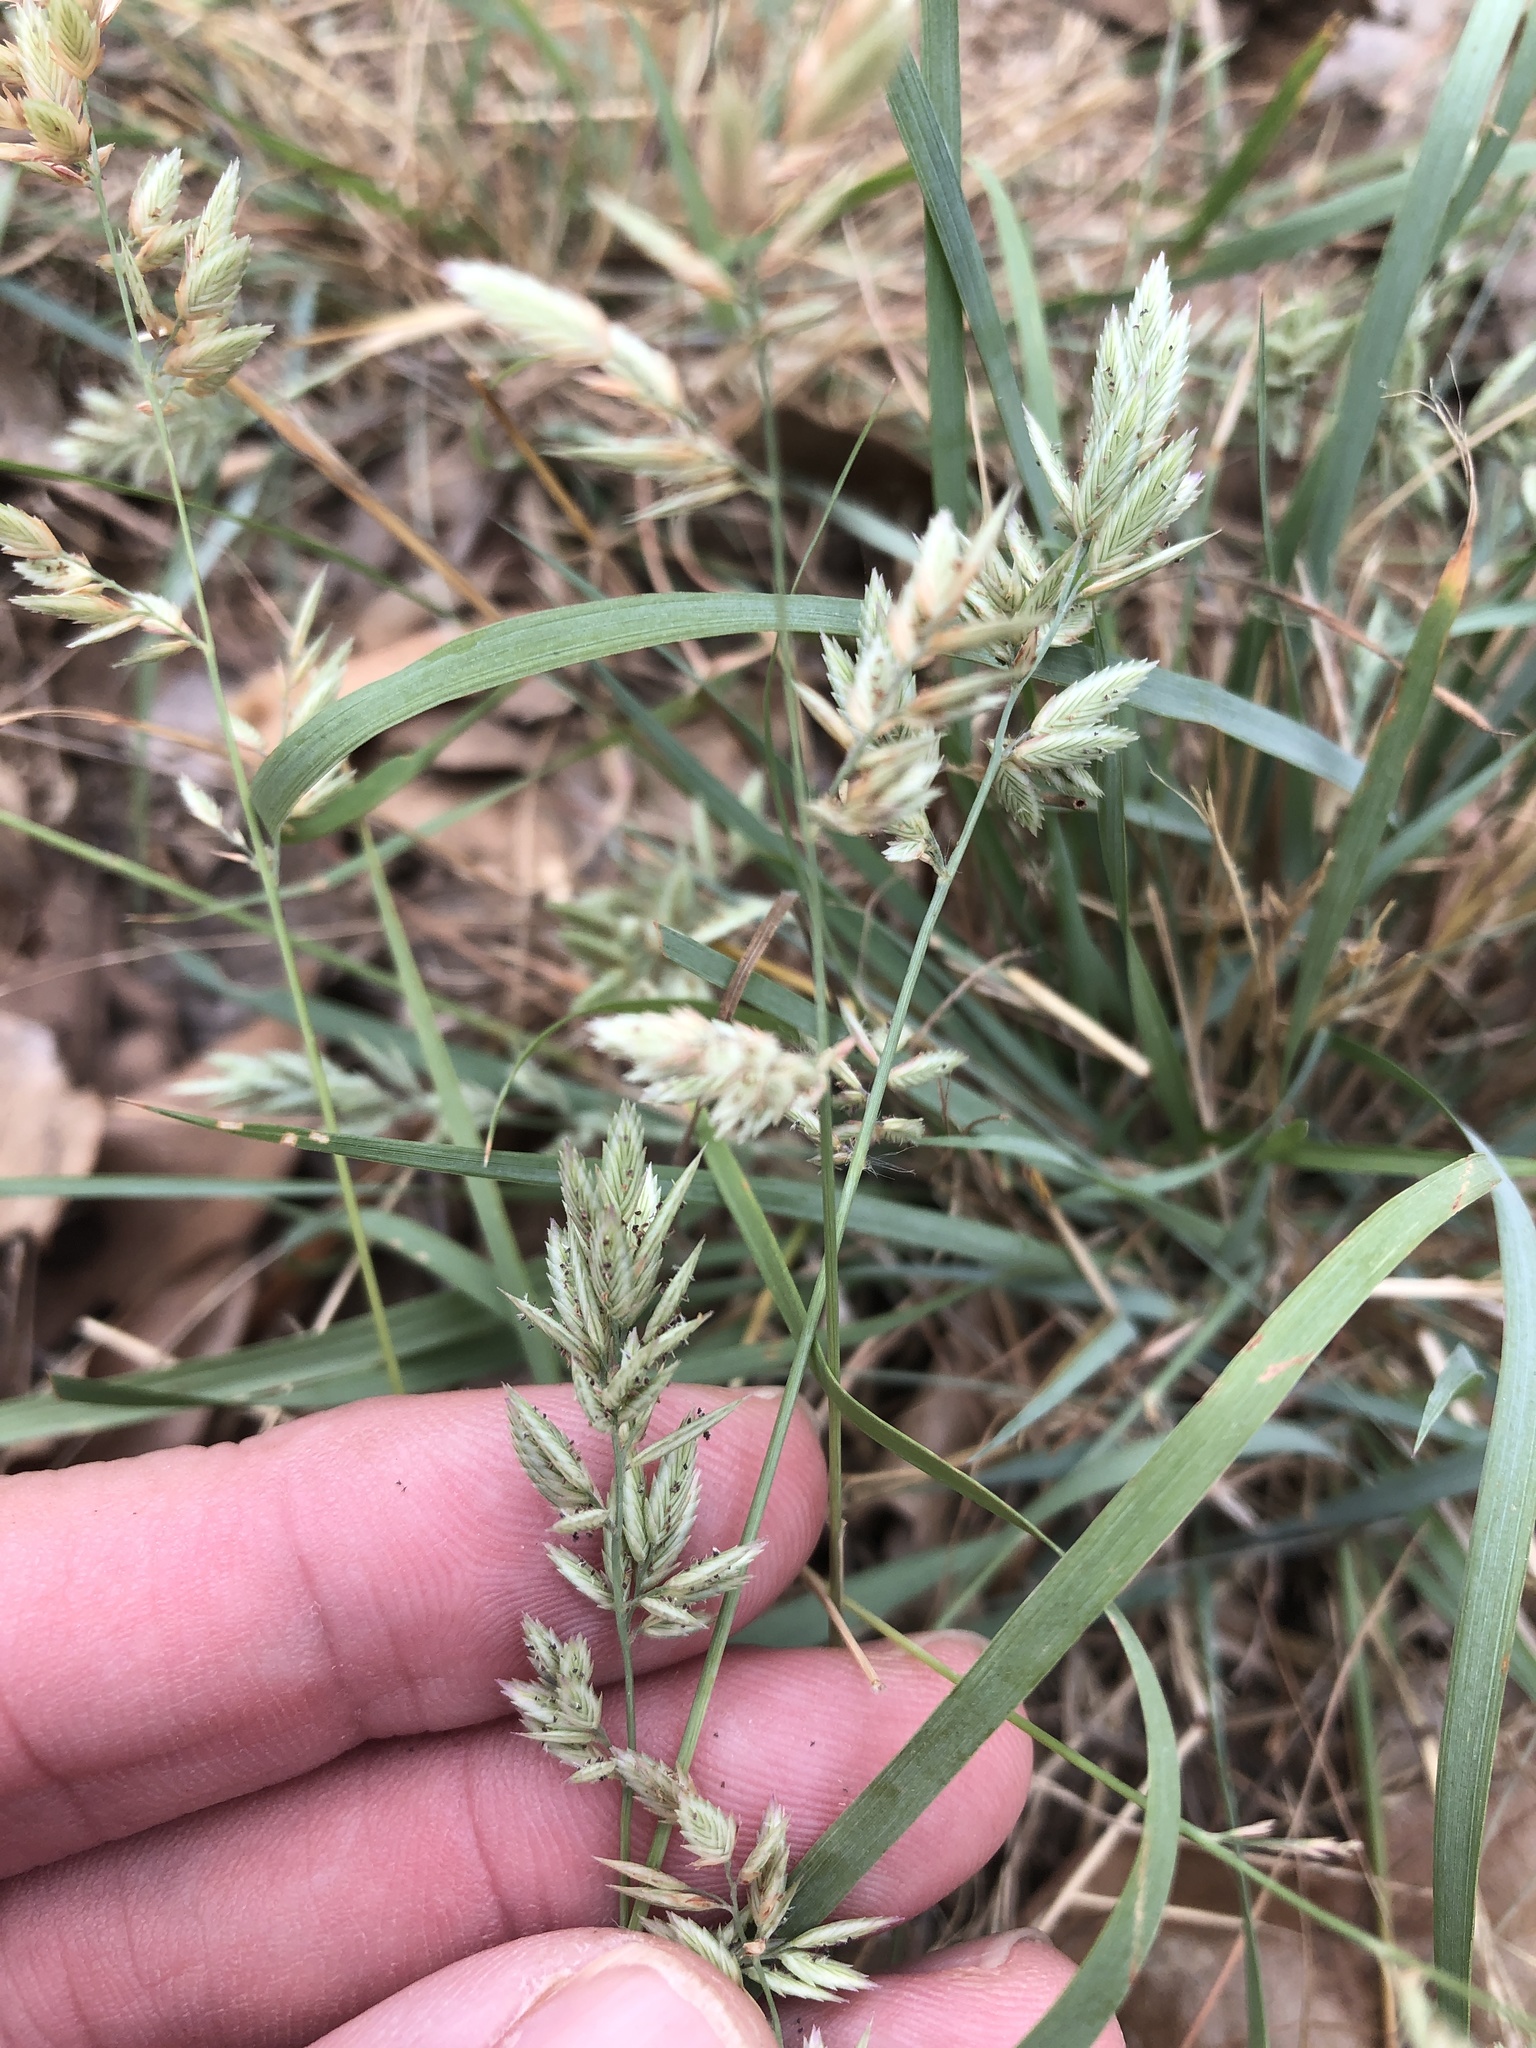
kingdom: Plantae
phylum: Tracheophyta
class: Liliopsida
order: Poales
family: Poaceae
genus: Eragrostis
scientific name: Eragrostis secundiflora
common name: Red love grass
